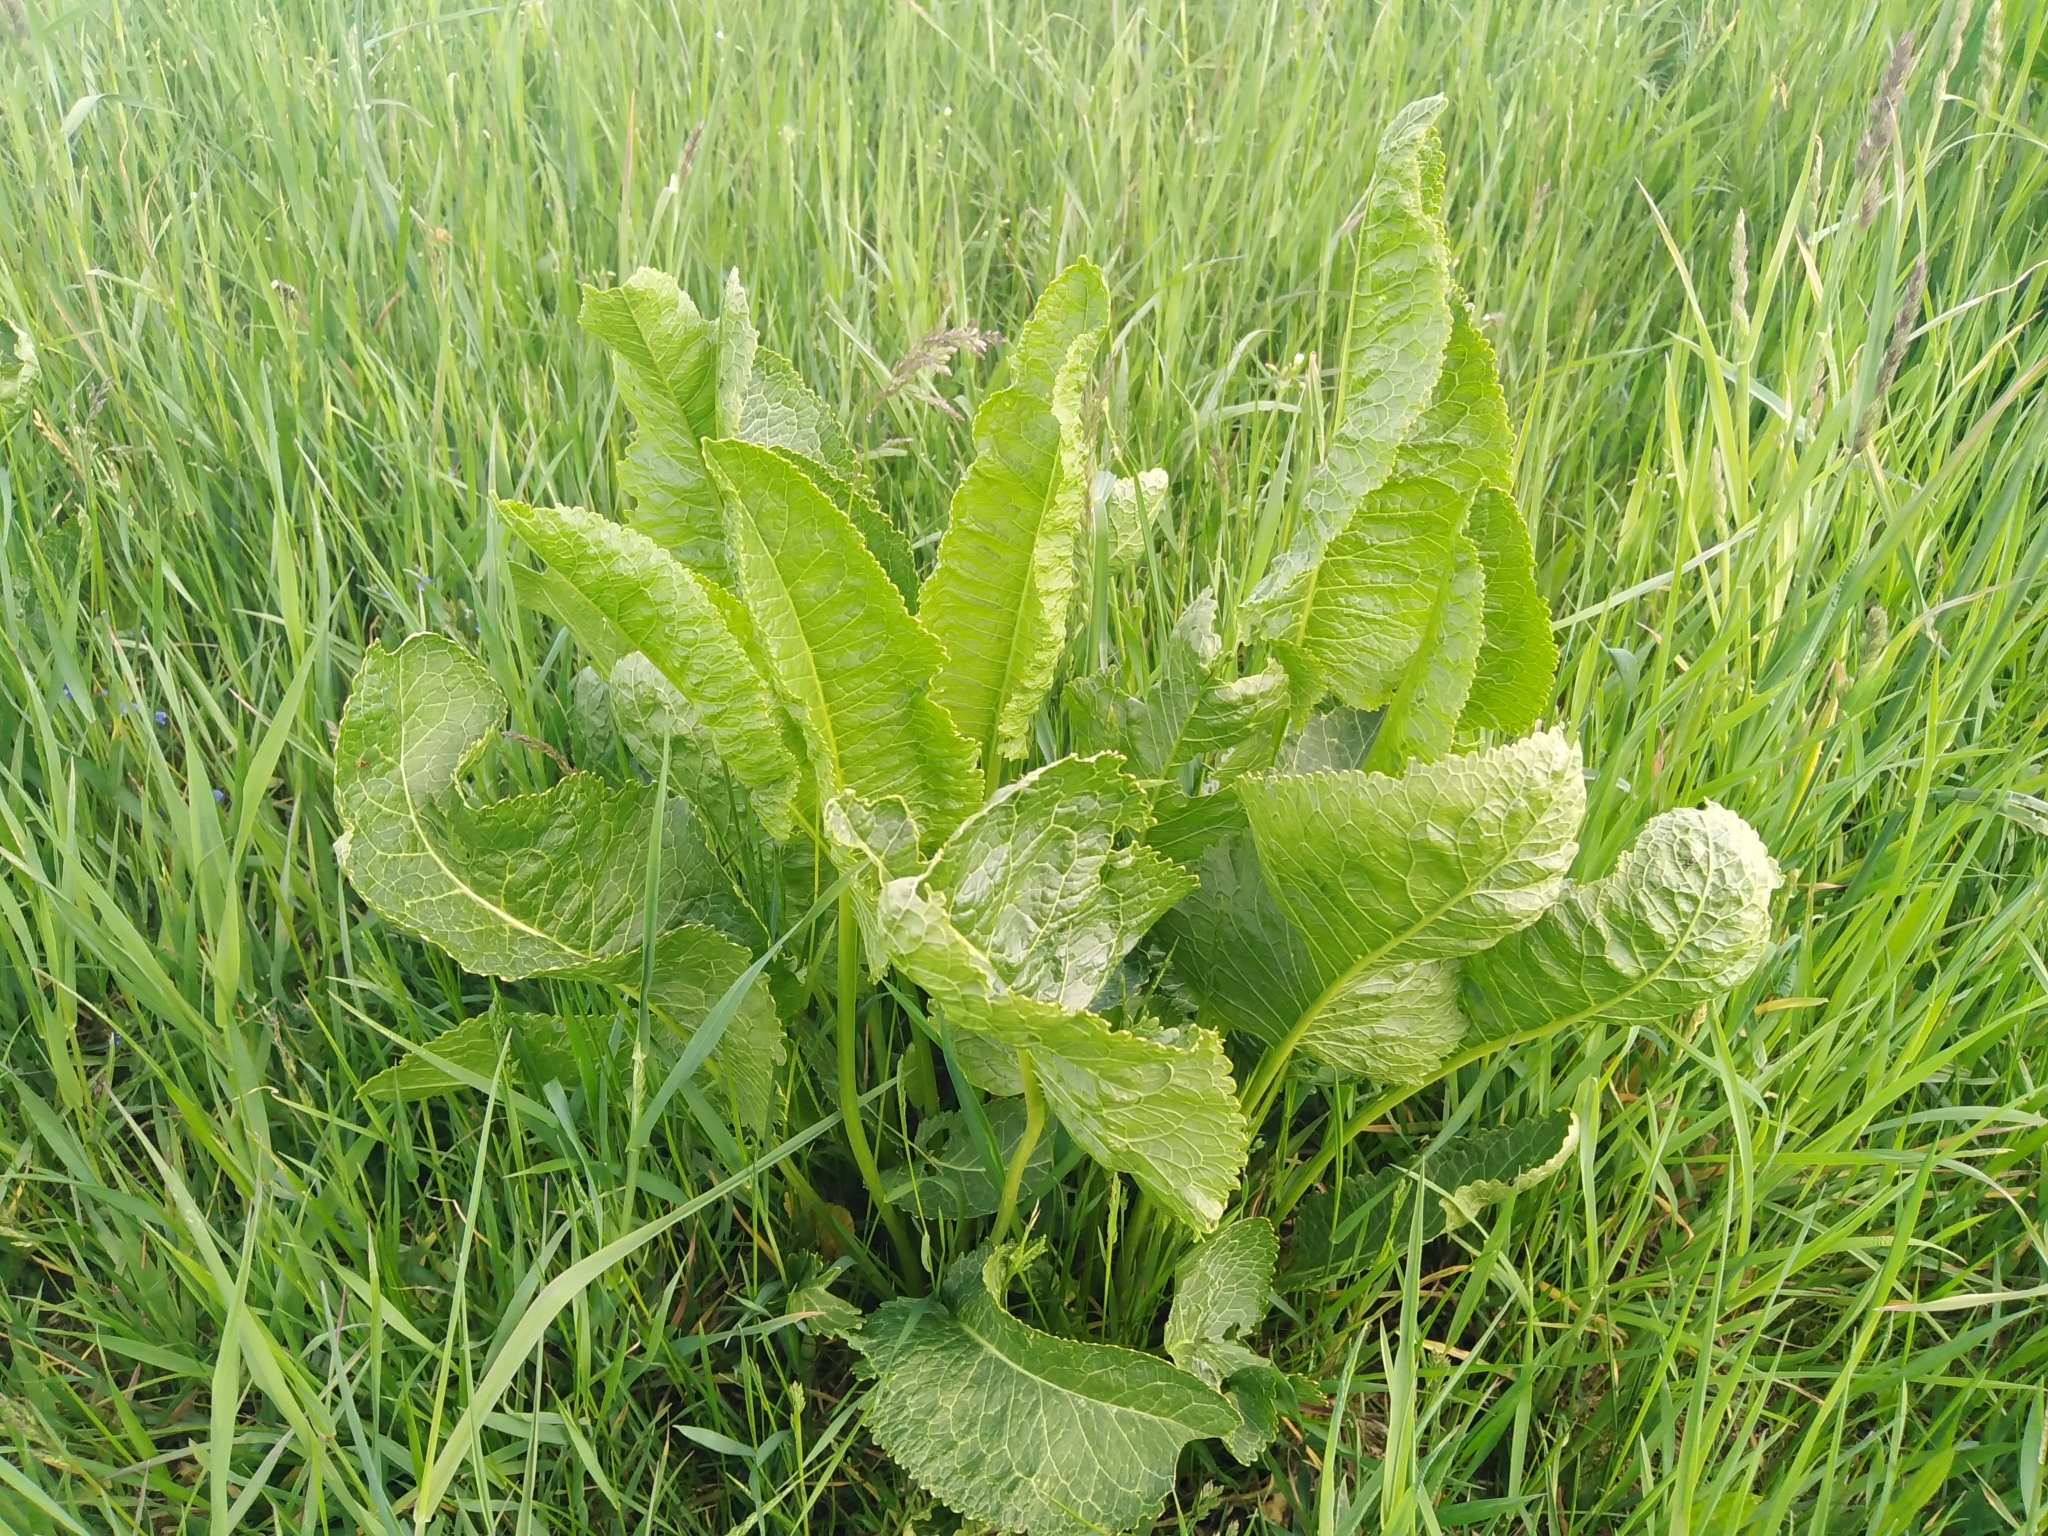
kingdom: Plantae
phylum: Tracheophyta
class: Magnoliopsida
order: Brassicales
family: Brassicaceae
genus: Armoracia
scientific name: Armoracia rusticana
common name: Horseradish
